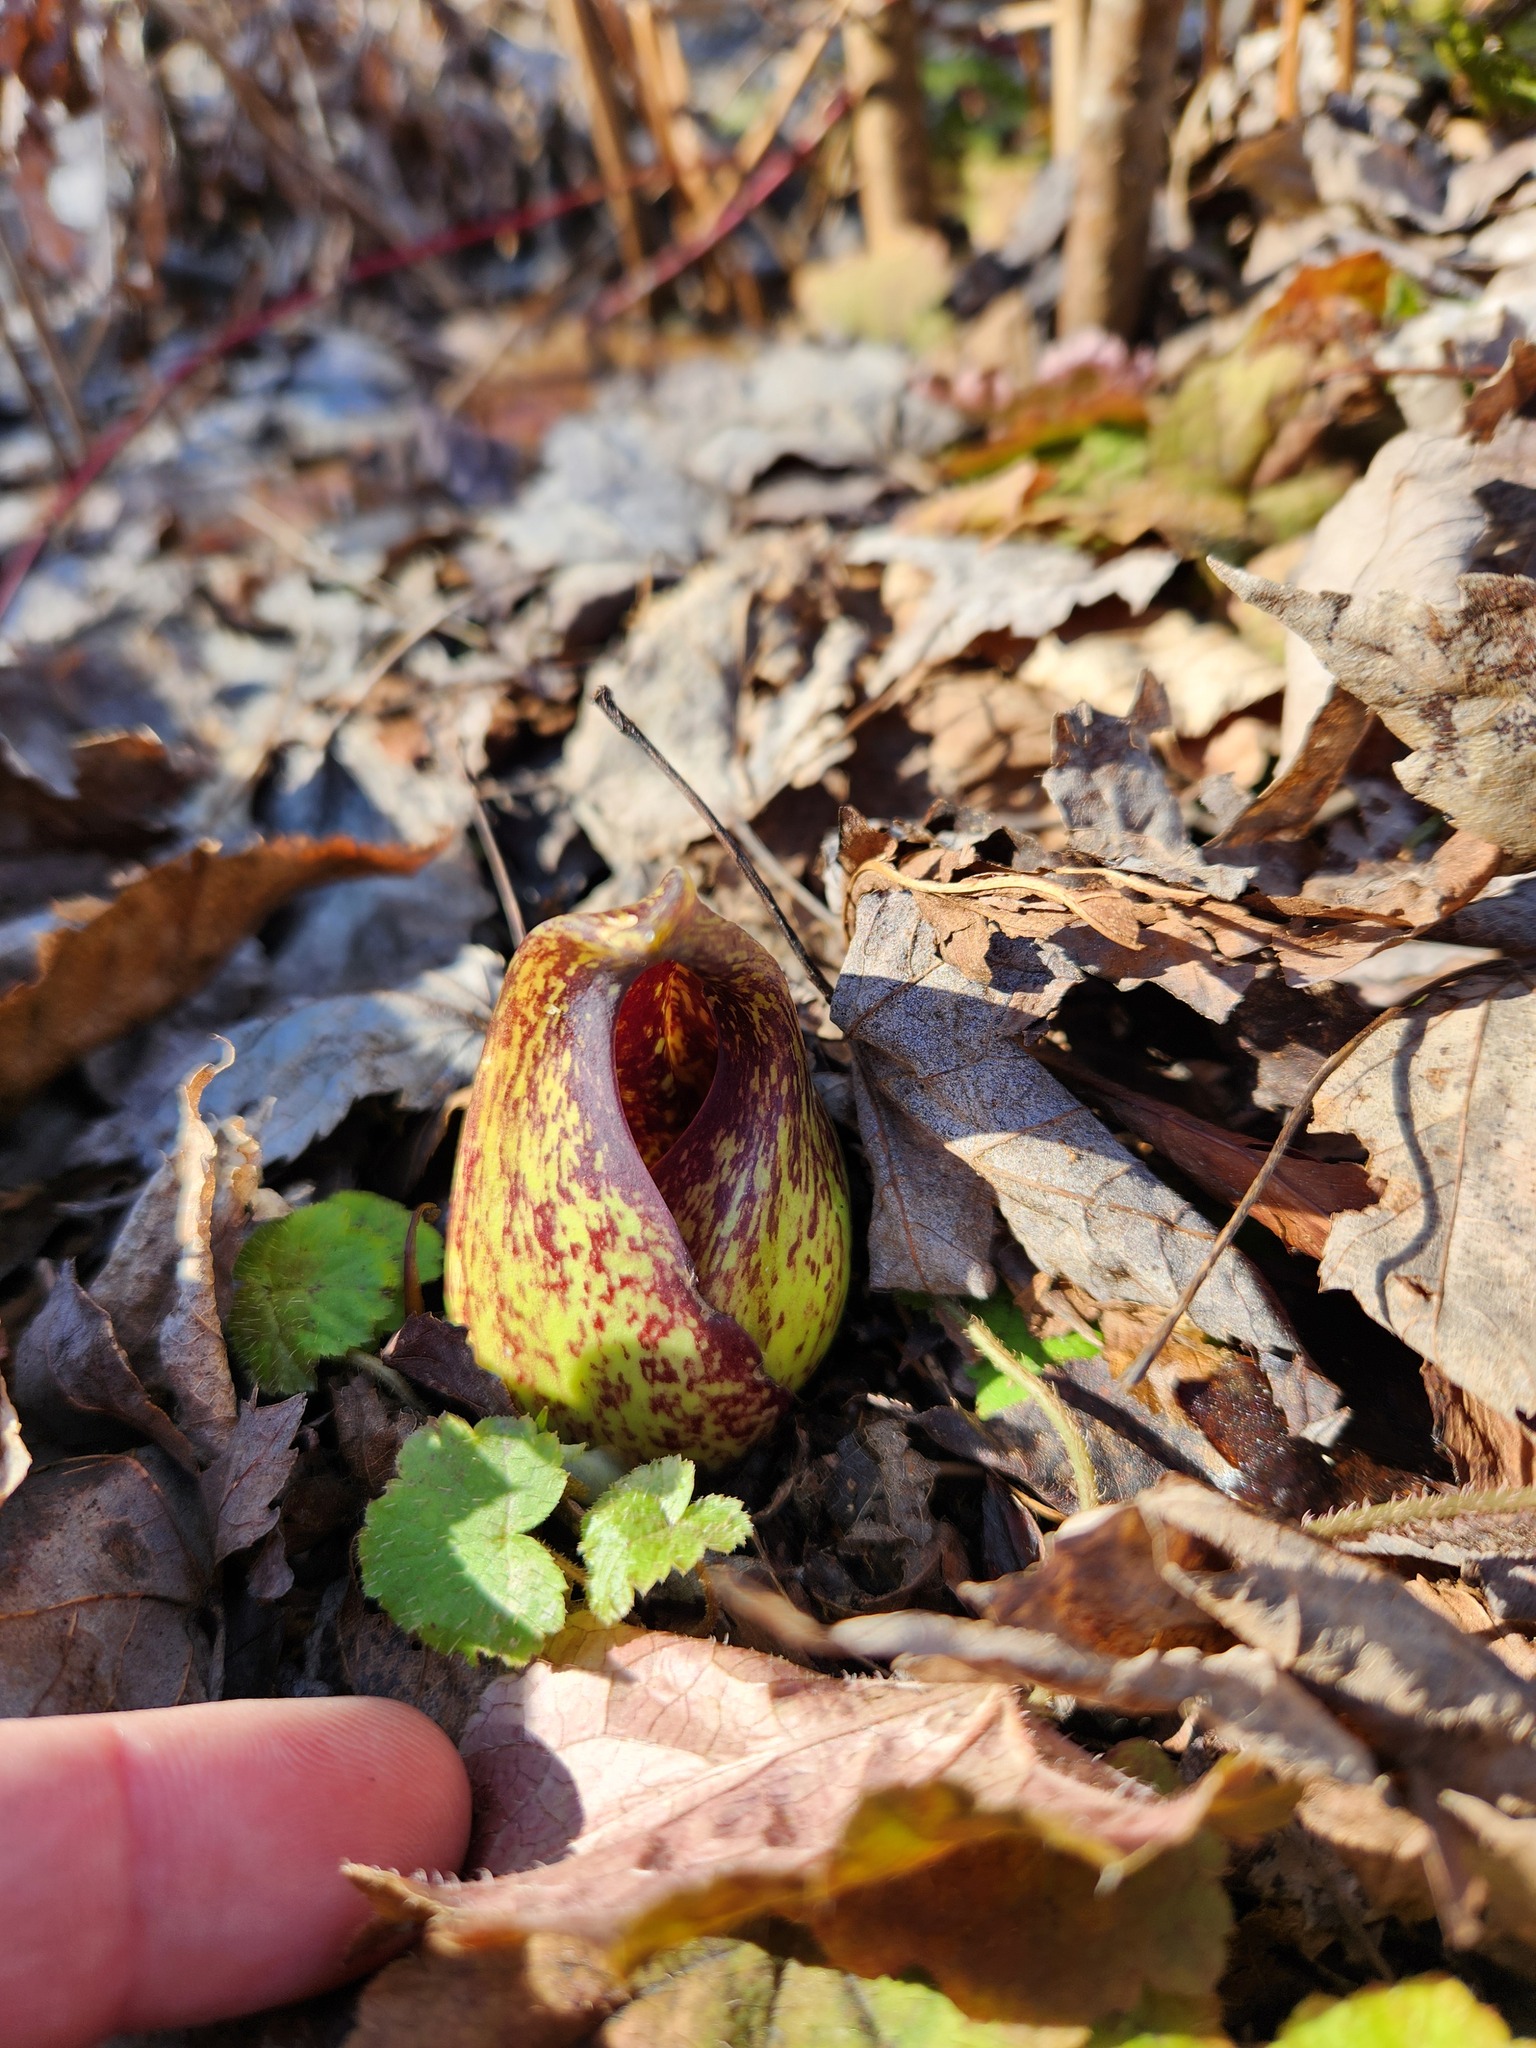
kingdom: Plantae
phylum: Tracheophyta
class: Liliopsida
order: Alismatales
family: Araceae
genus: Symplocarpus
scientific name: Symplocarpus foetidus
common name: Eastern skunk cabbage
